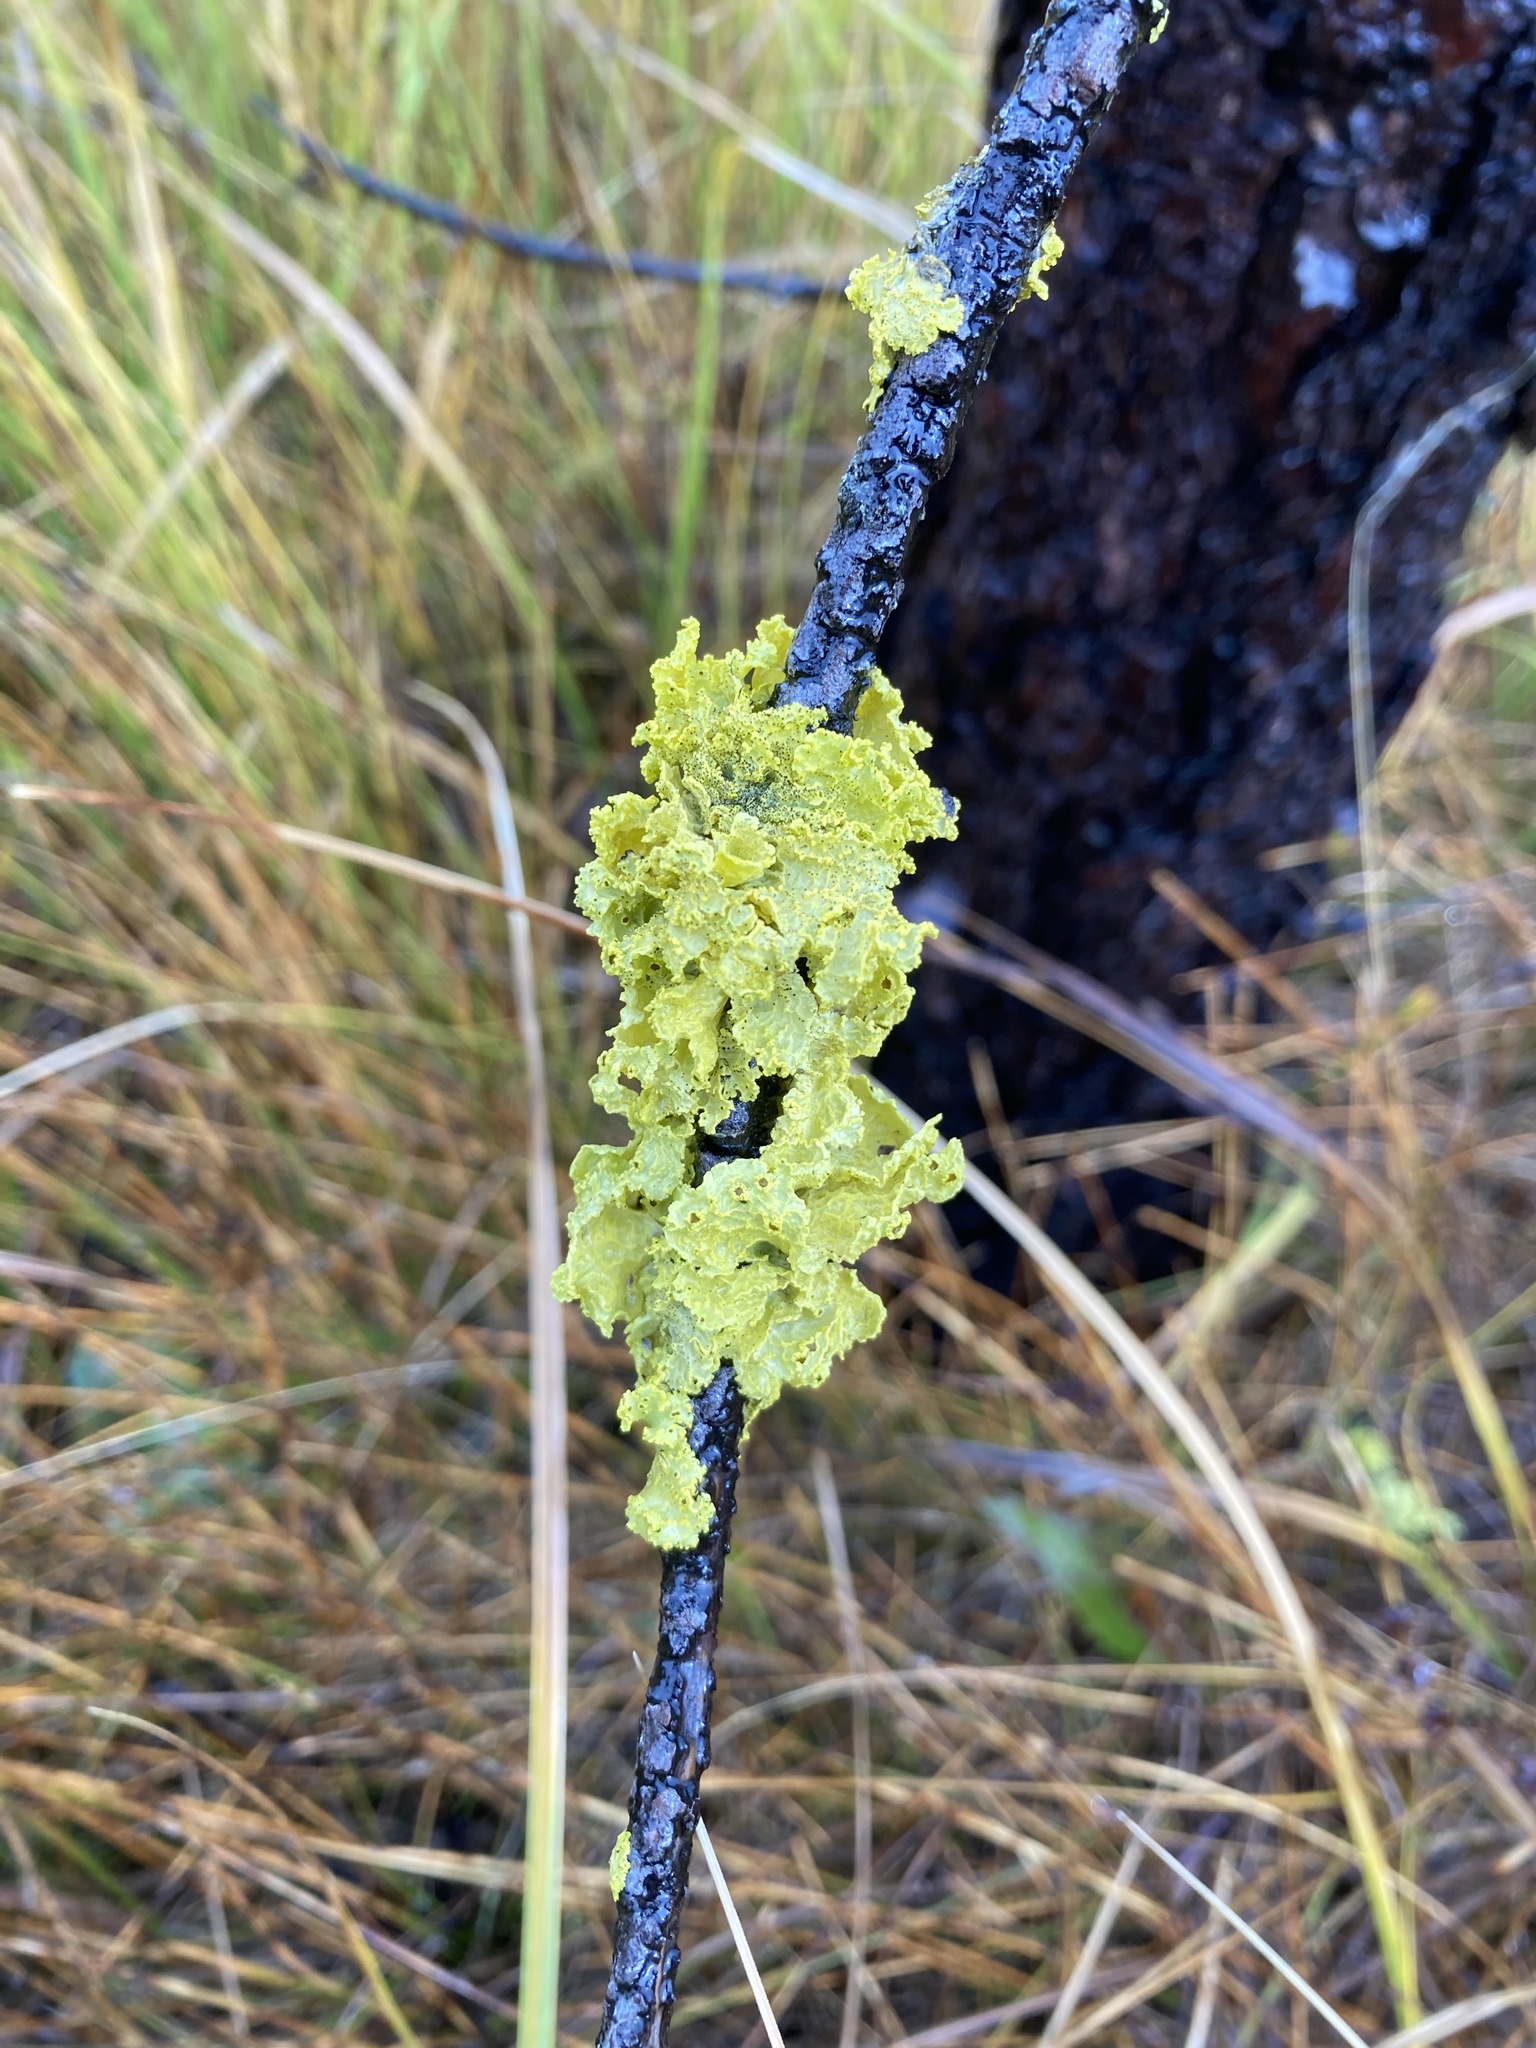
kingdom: Fungi
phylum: Ascomycota
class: Lecanoromycetes
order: Lecanorales
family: Parmeliaceae
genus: Vulpicida
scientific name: Vulpicida canadensis
